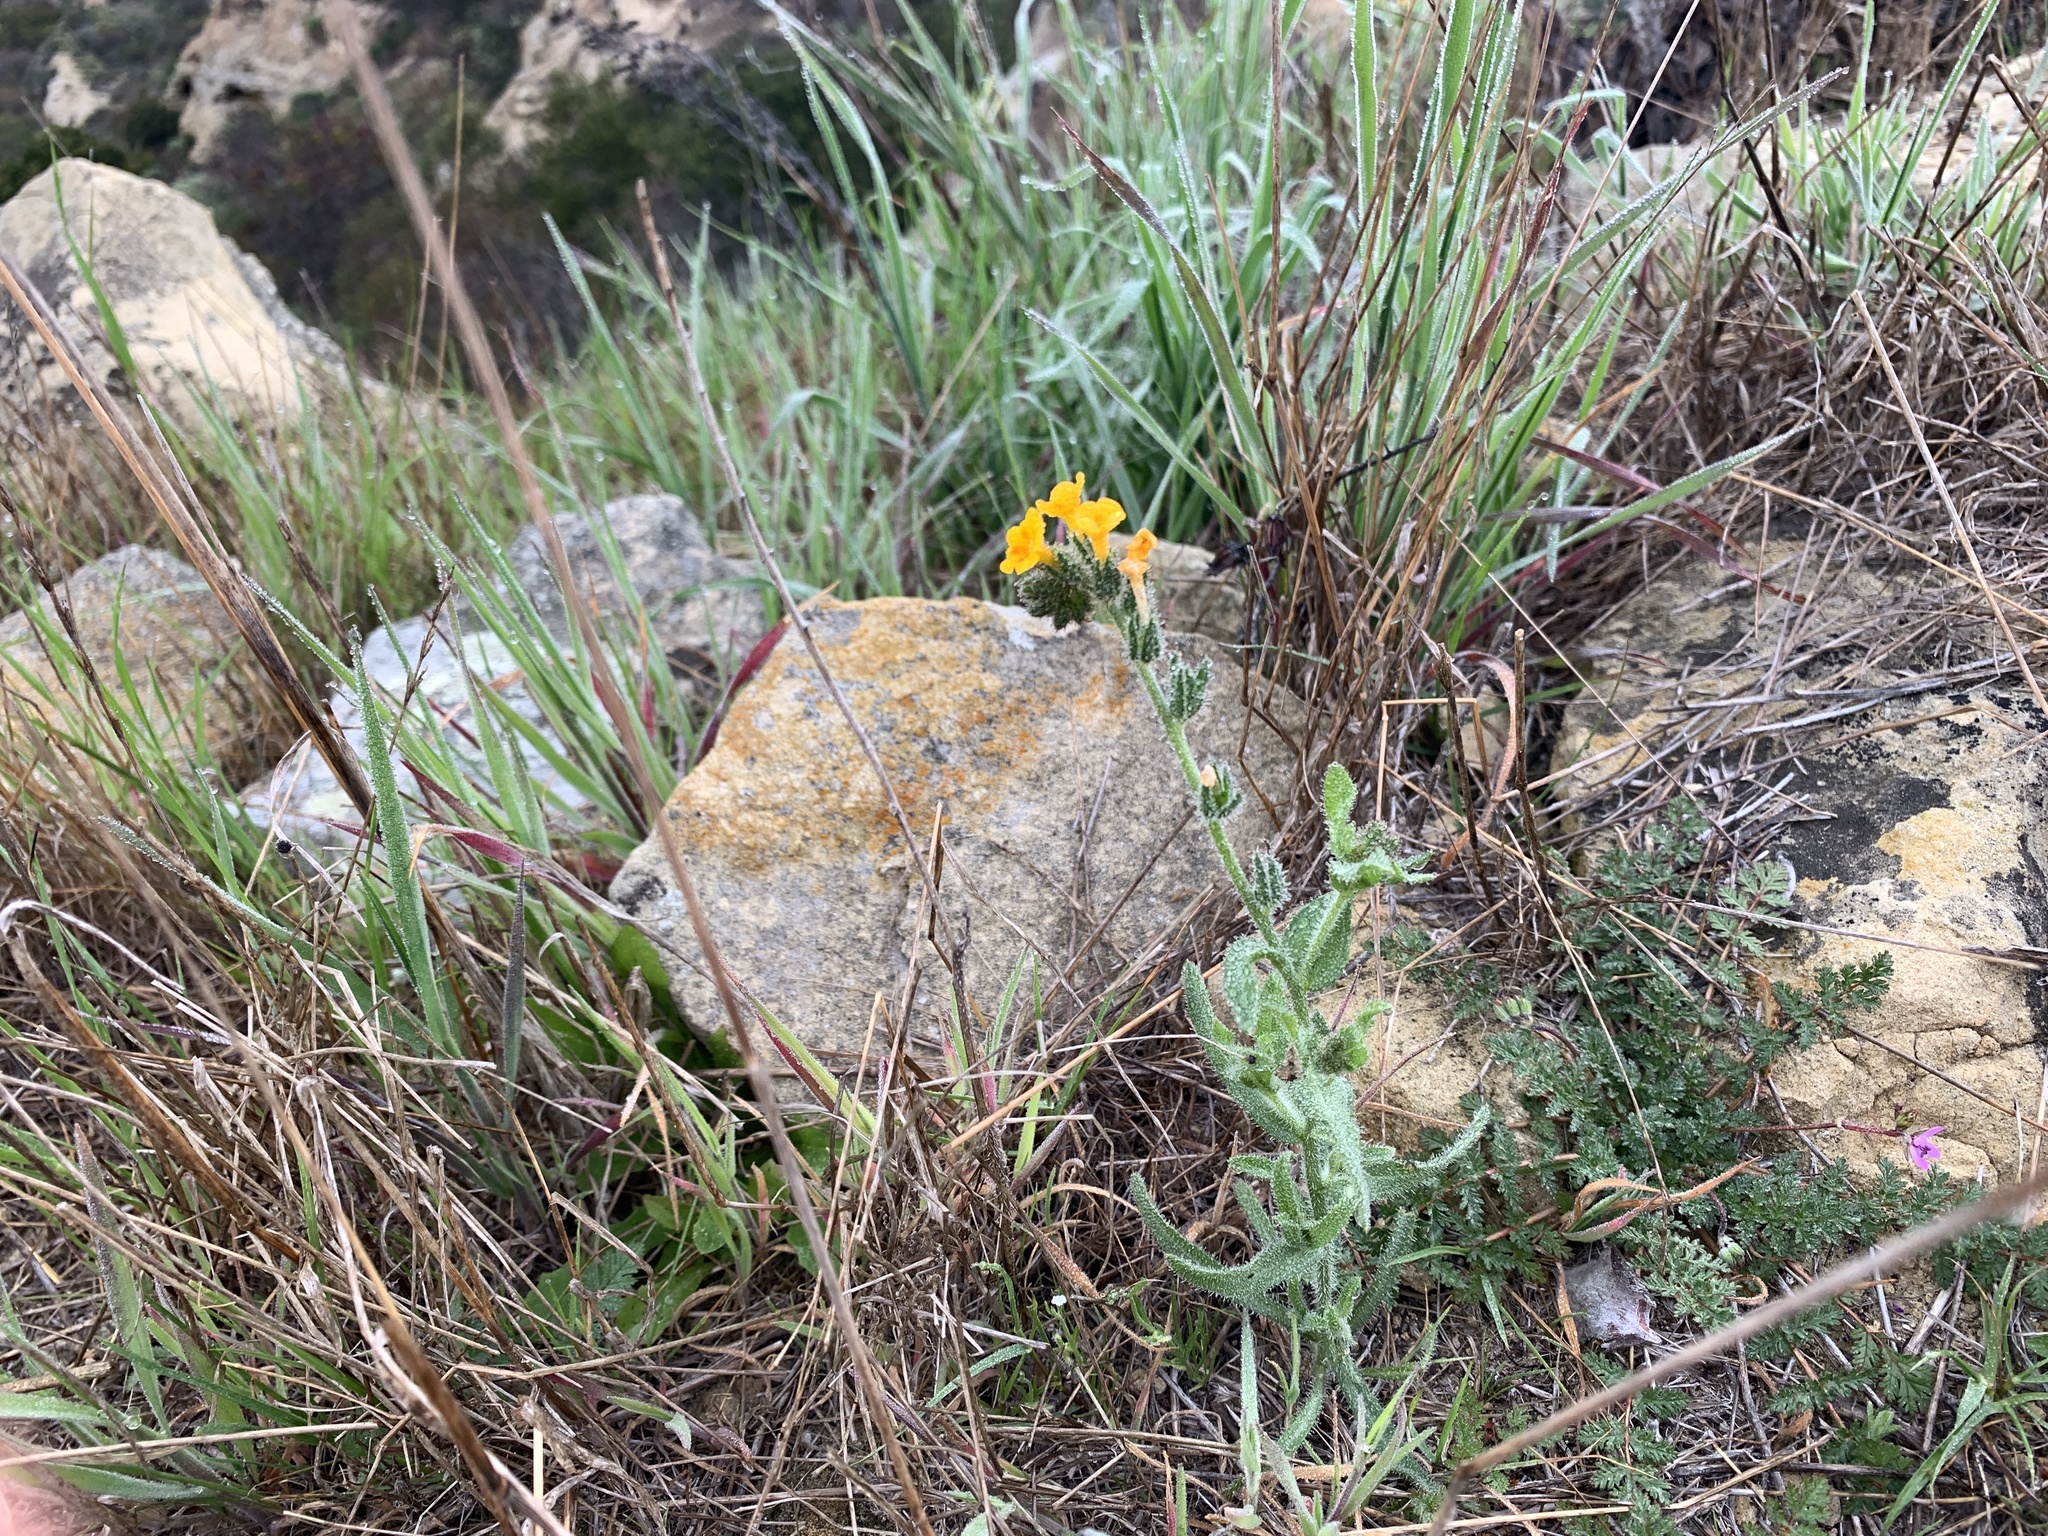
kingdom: Plantae
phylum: Tracheophyta
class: Magnoliopsida
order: Boraginales
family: Boraginaceae
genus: Amsinckia
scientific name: Amsinckia menziesii
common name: Menzies' fiddleneck
